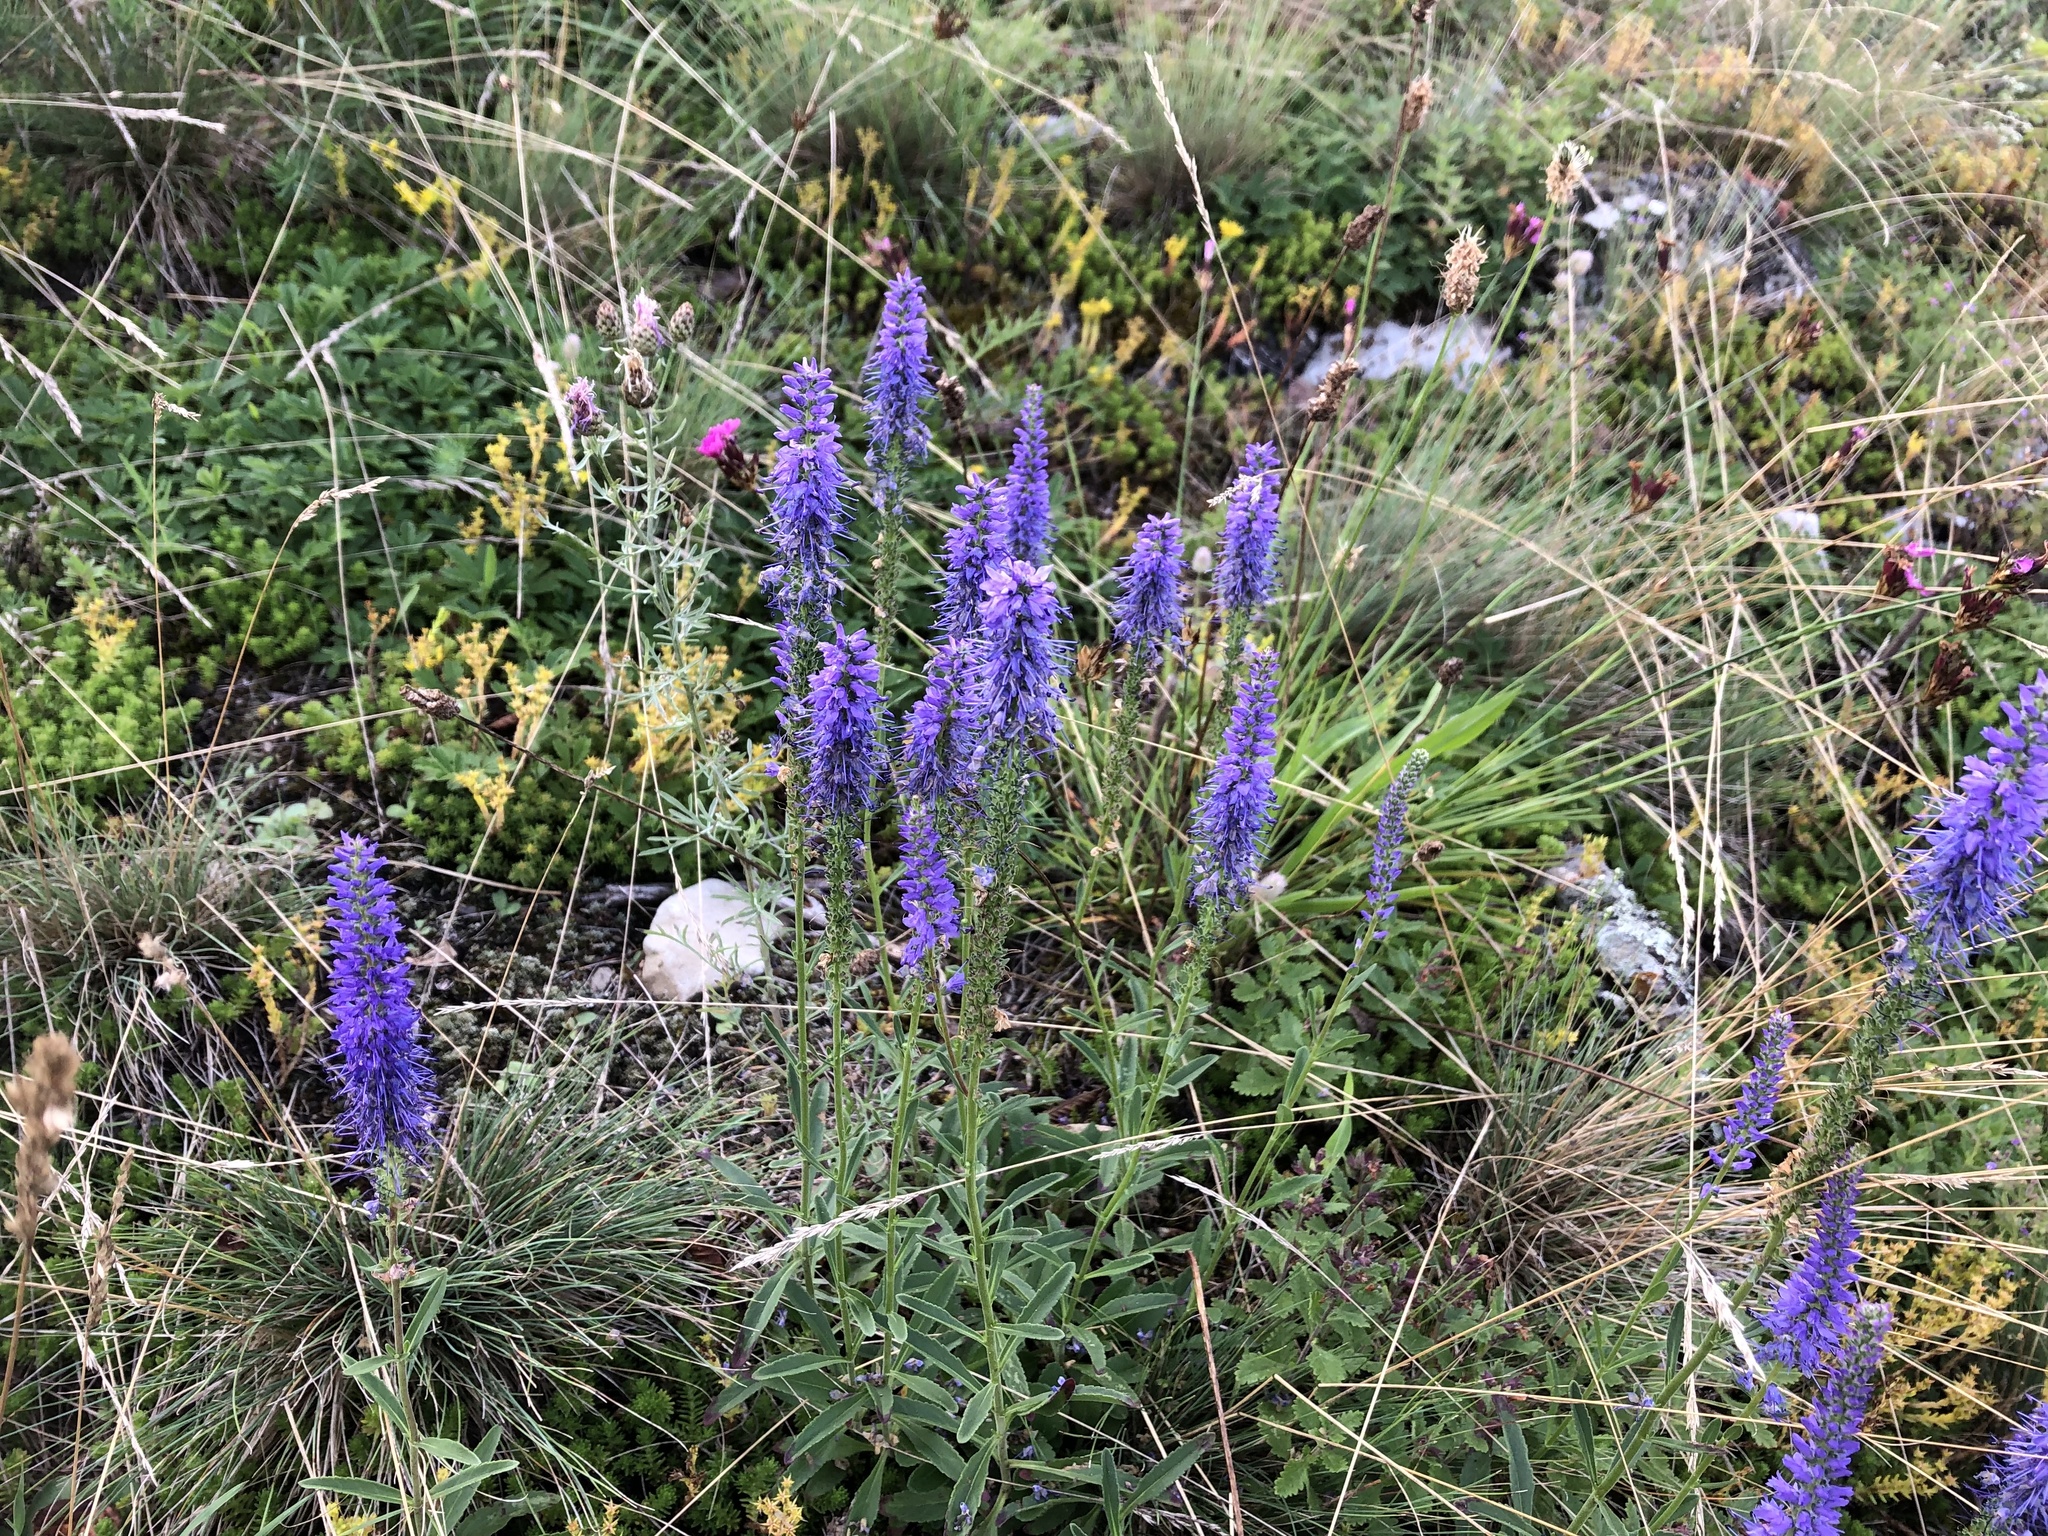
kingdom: Plantae
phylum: Tracheophyta
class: Magnoliopsida
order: Lamiales
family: Plantaginaceae
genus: Veronica
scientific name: Veronica spicata
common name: Spiked speedwell
